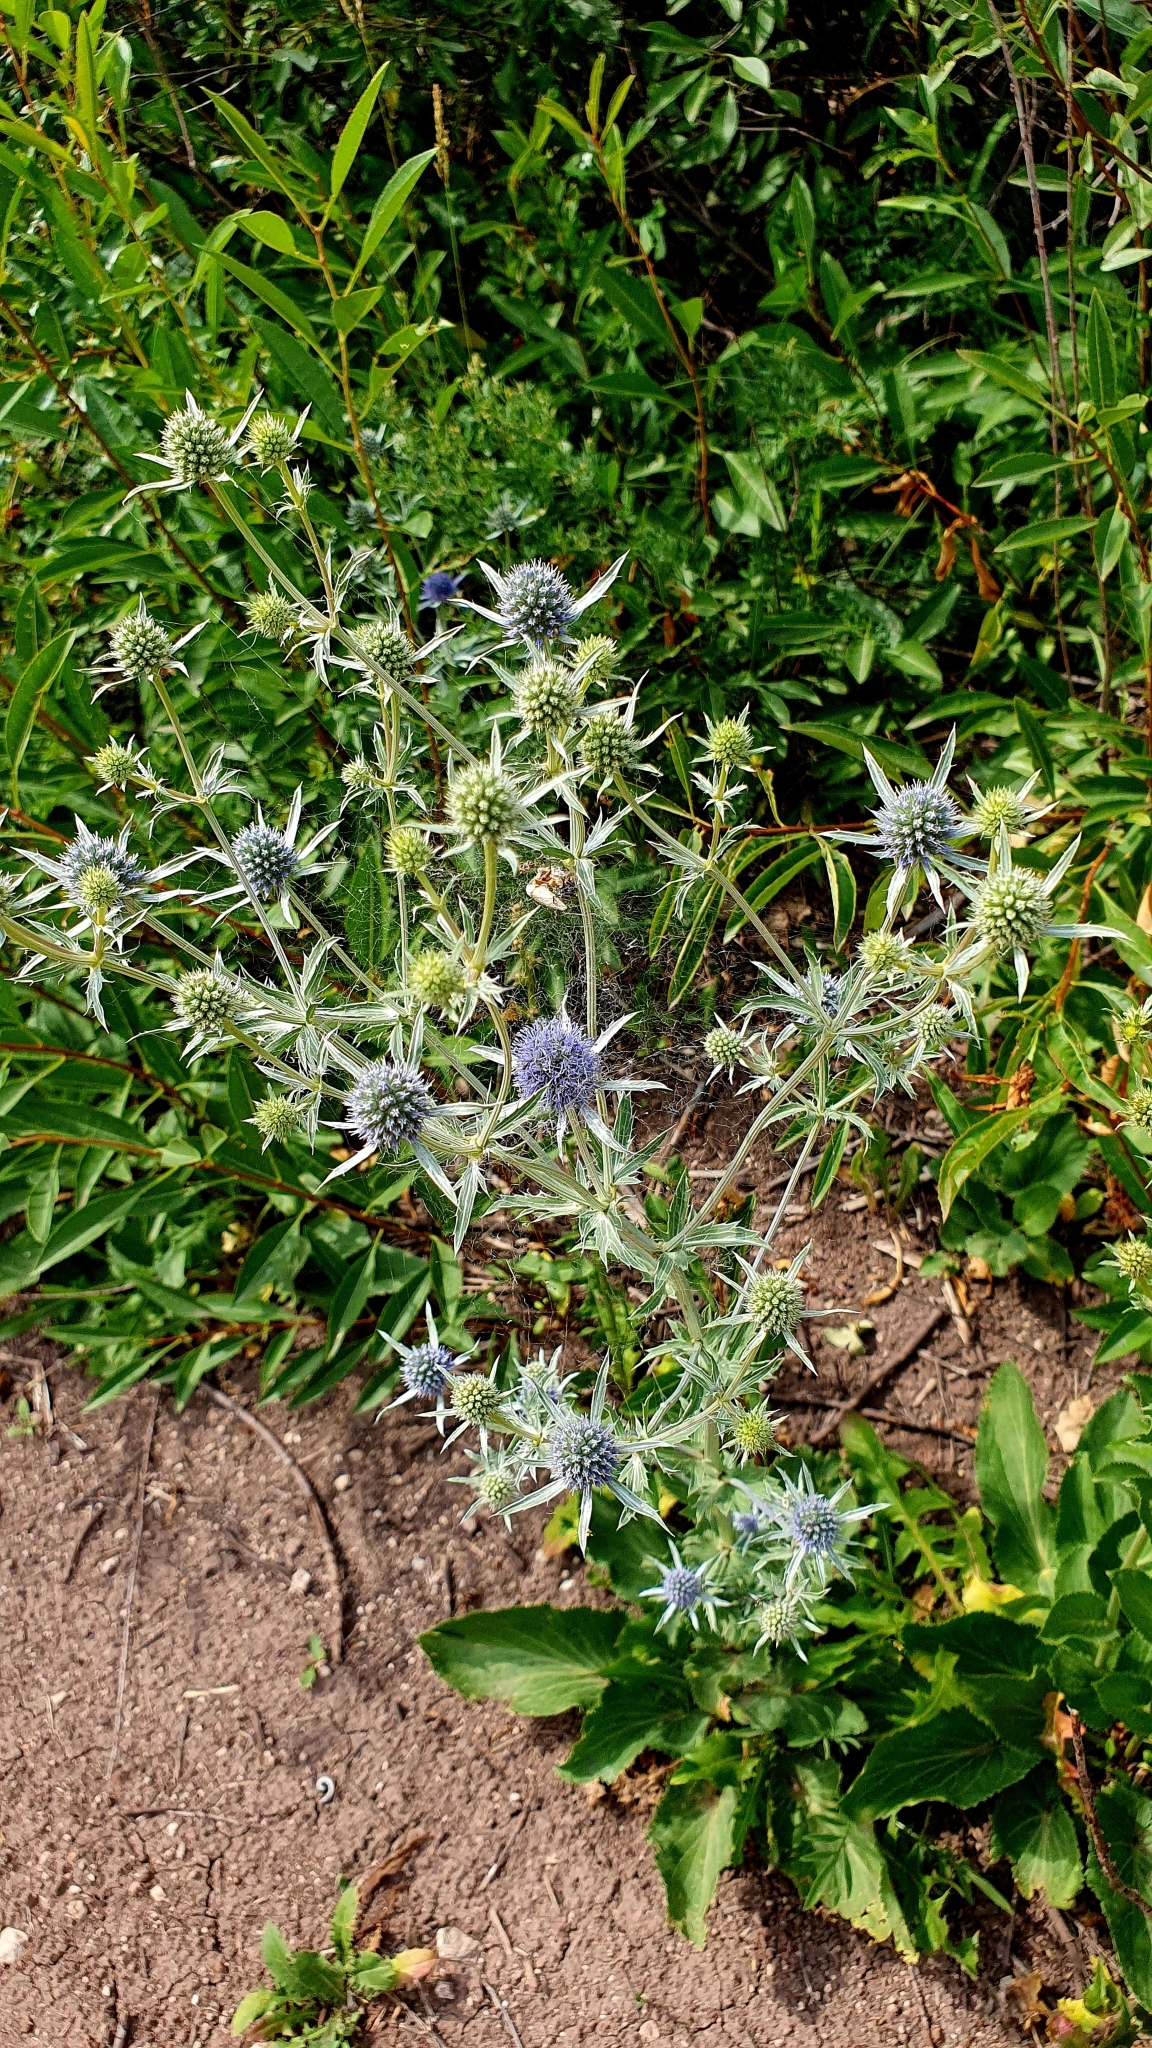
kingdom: Plantae
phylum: Tracheophyta
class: Magnoliopsida
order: Apiales
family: Apiaceae
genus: Eryngium
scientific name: Eryngium planum
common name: Blue eryngo
